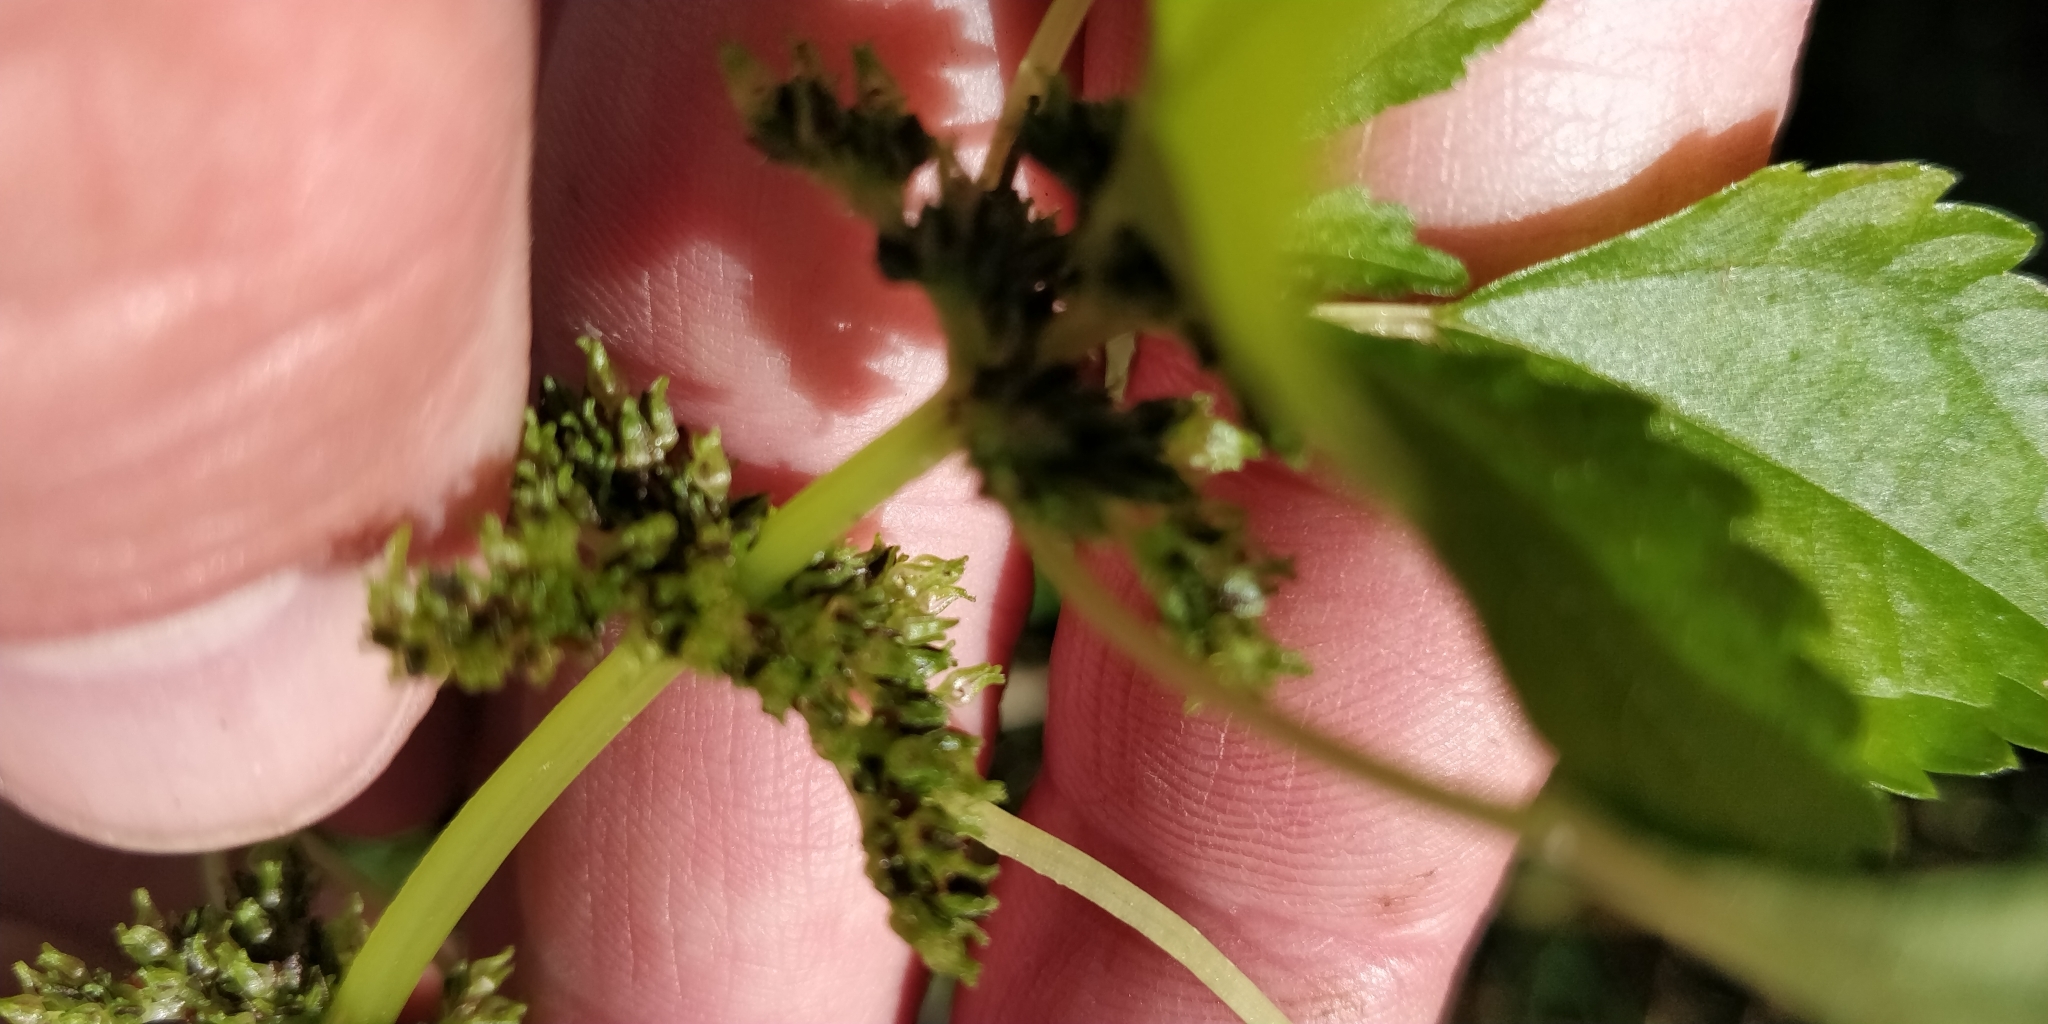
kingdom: Plantae
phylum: Tracheophyta
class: Magnoliopsida
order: Rosales
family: Urticaceae
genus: Pilea
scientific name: Pilea fontana
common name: Clearweed
